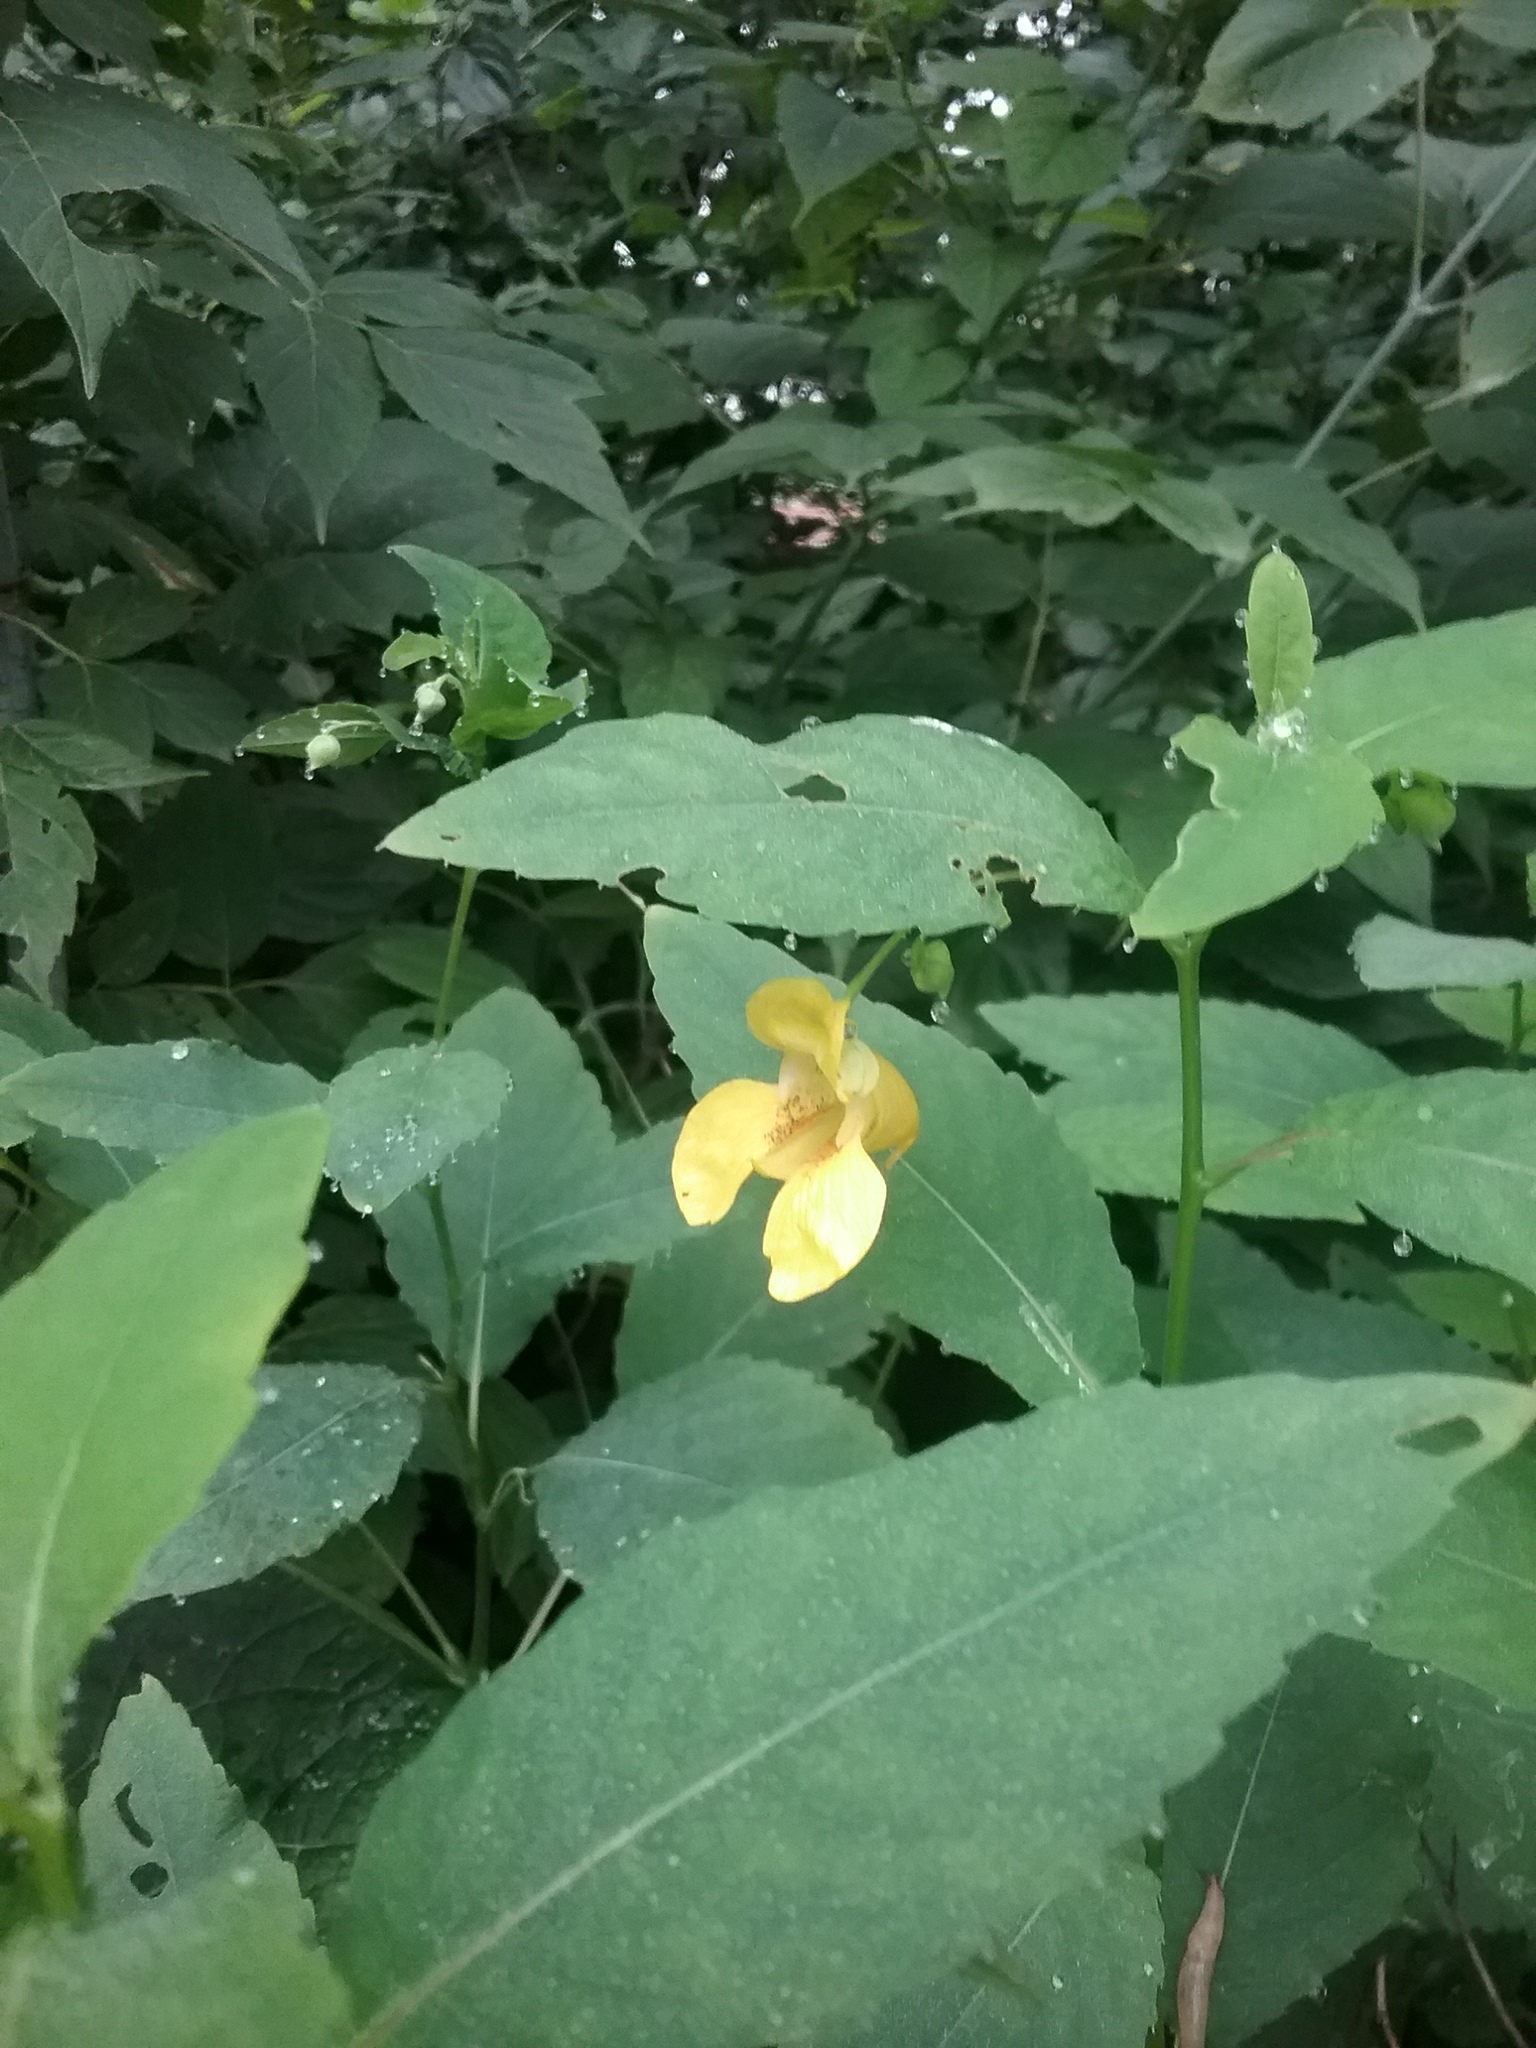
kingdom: Plantae
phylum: Tracheophyta
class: Magnoliopsida
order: Ericales
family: Balsaminaceae
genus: Impatiens
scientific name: Impatiens pallida
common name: Pale snapweed
